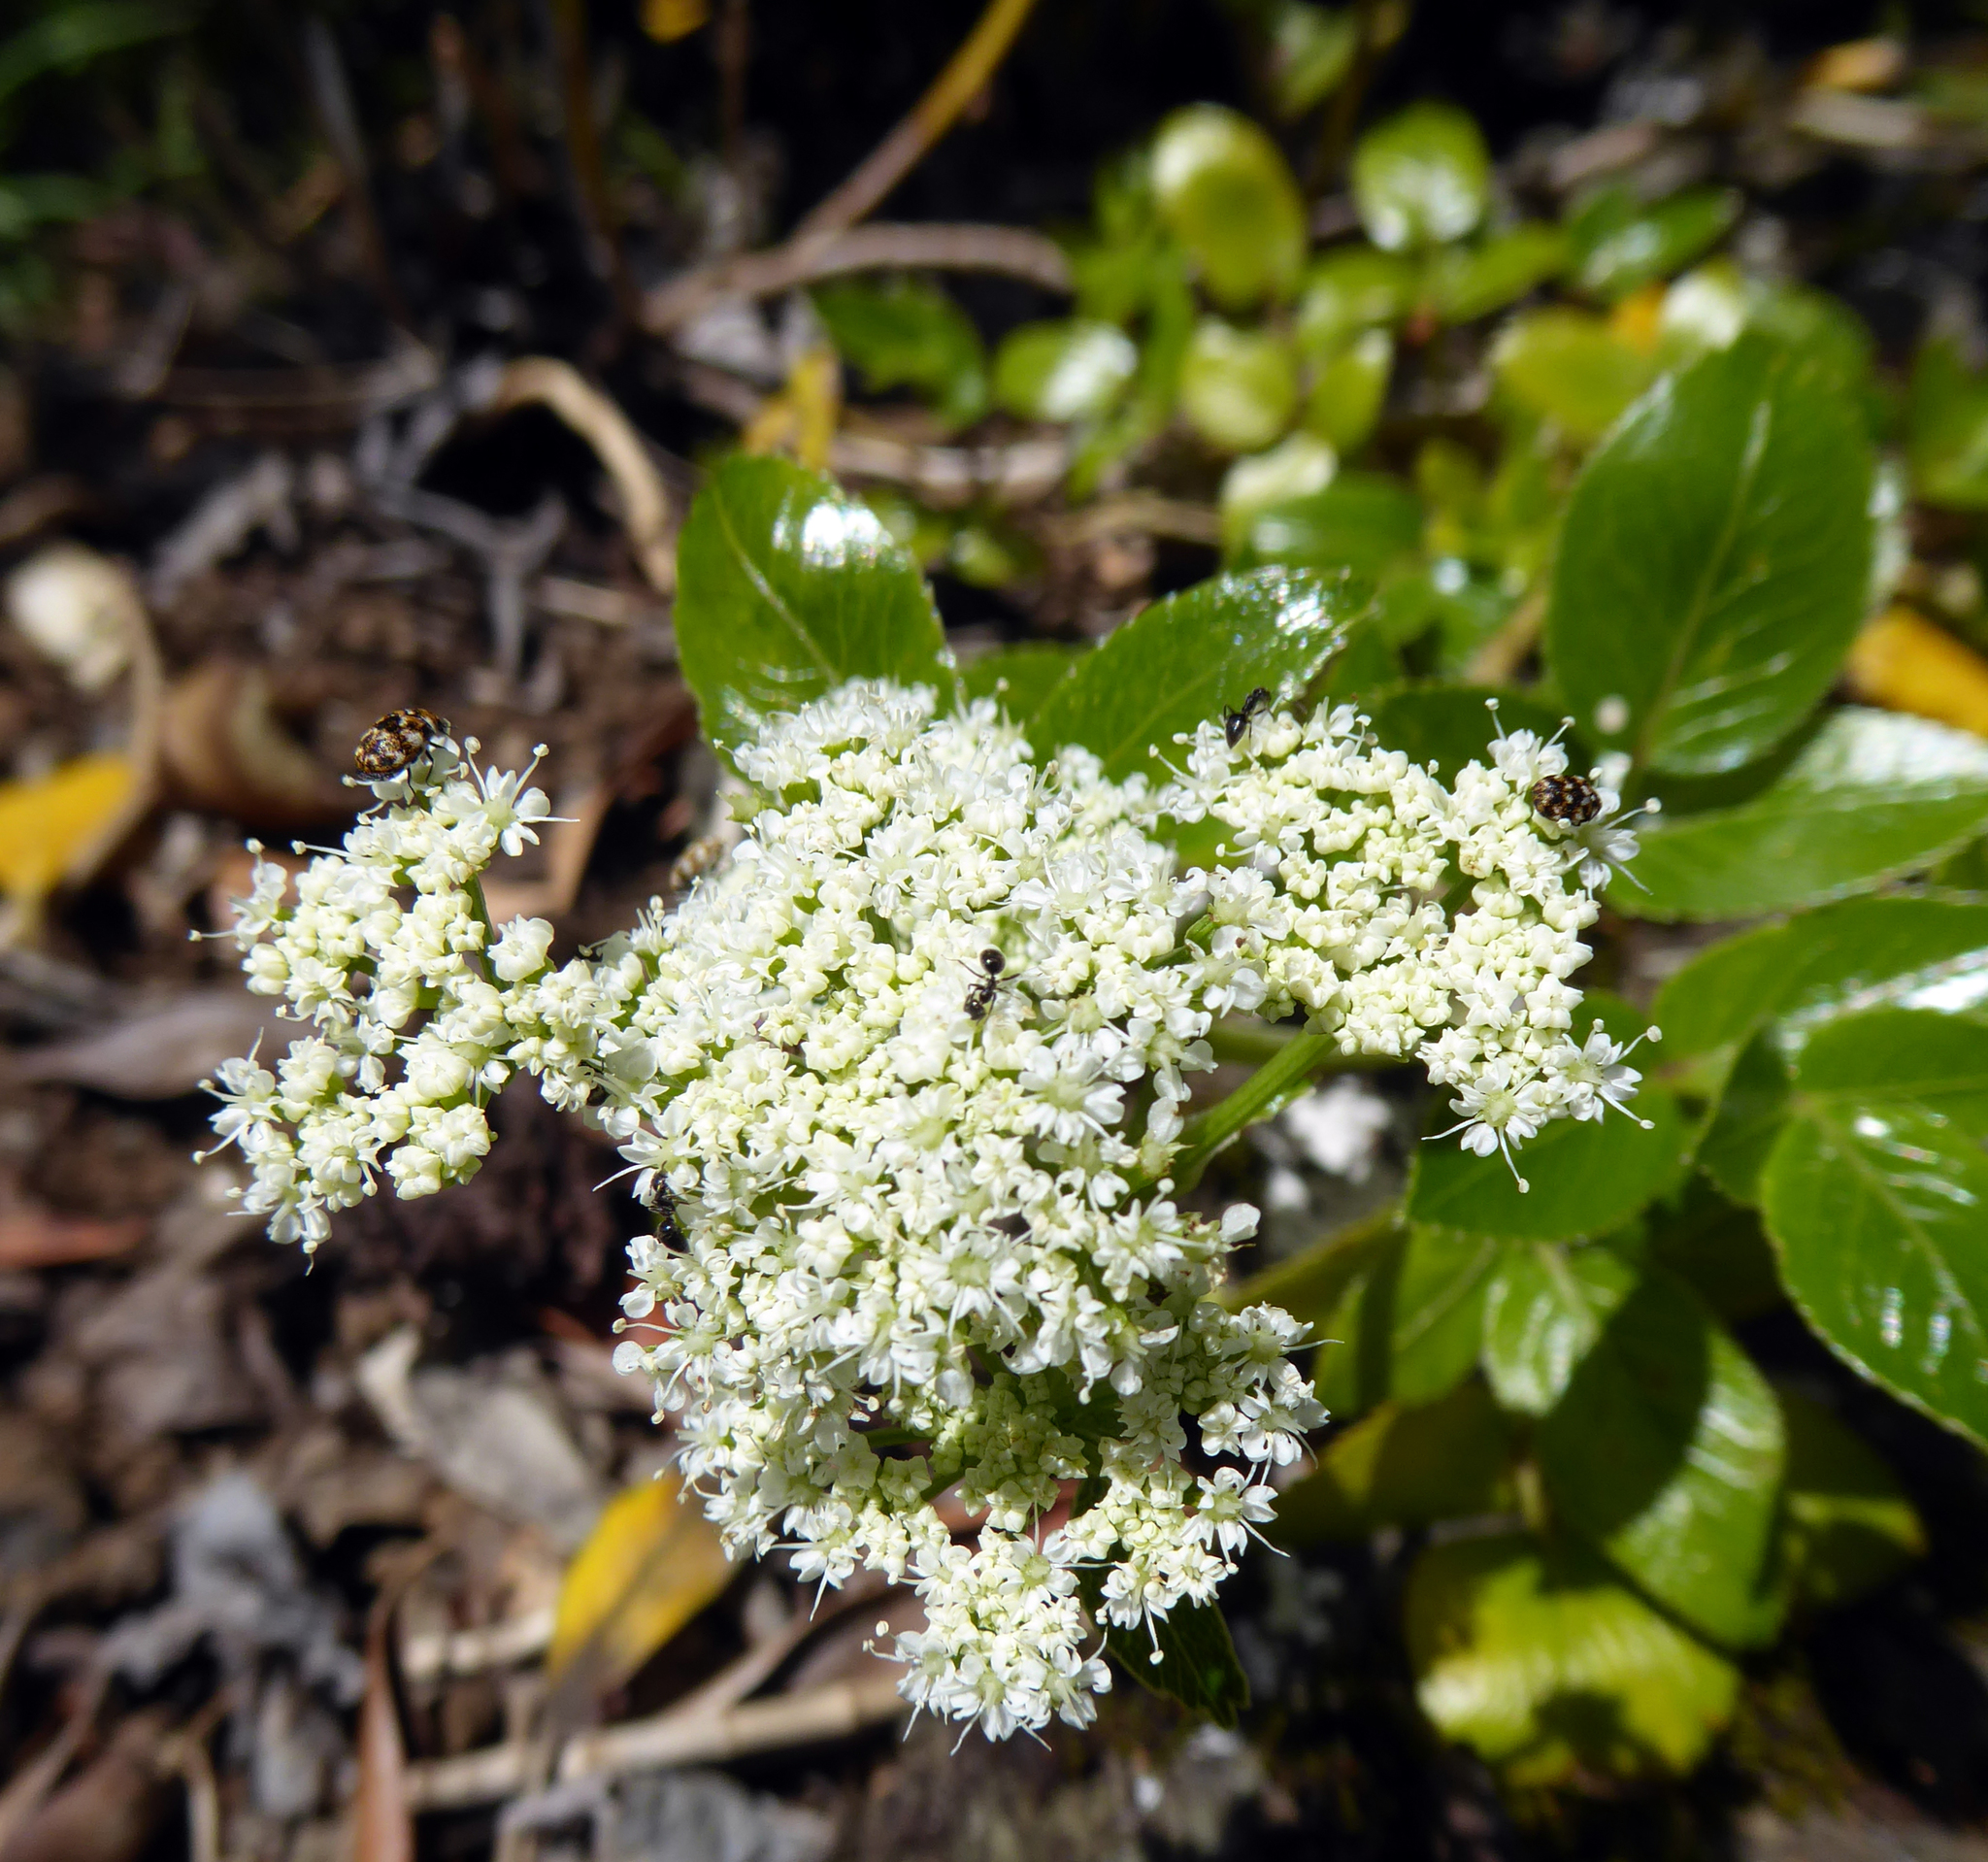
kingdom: Plantae
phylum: Tracheophyta
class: Magnoliopsida
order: Apiales
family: Apiaceae
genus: Scandia
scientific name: Scandia rosifolia
